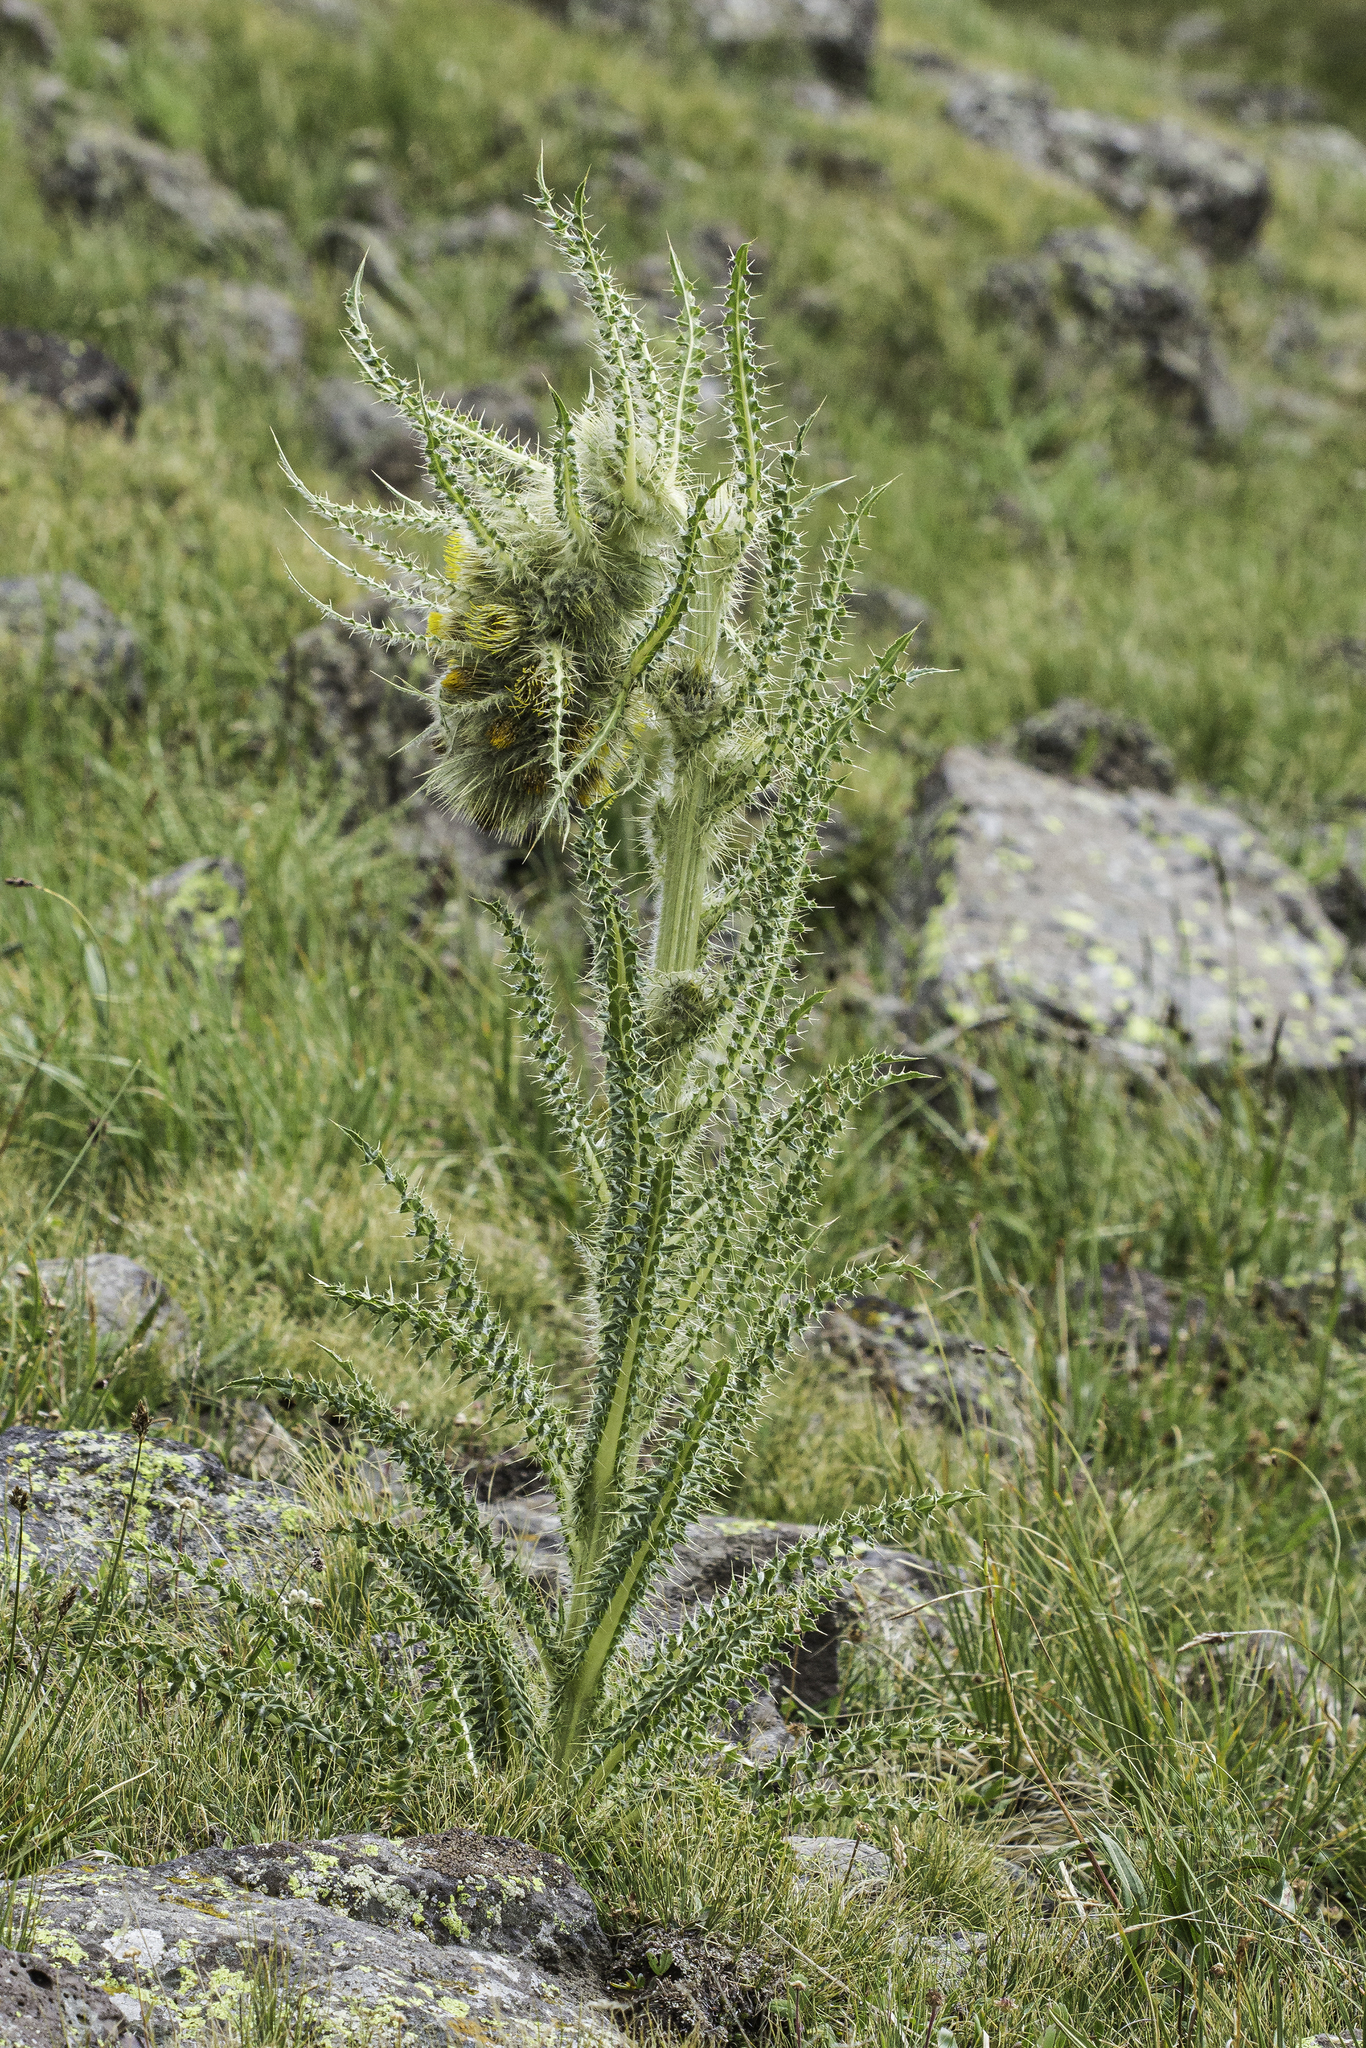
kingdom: Plantae
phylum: Tracheophyta
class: Magnoliopsida
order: Asterales
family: Asteraceae
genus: Cirsium
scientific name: Cirsium funkiae
